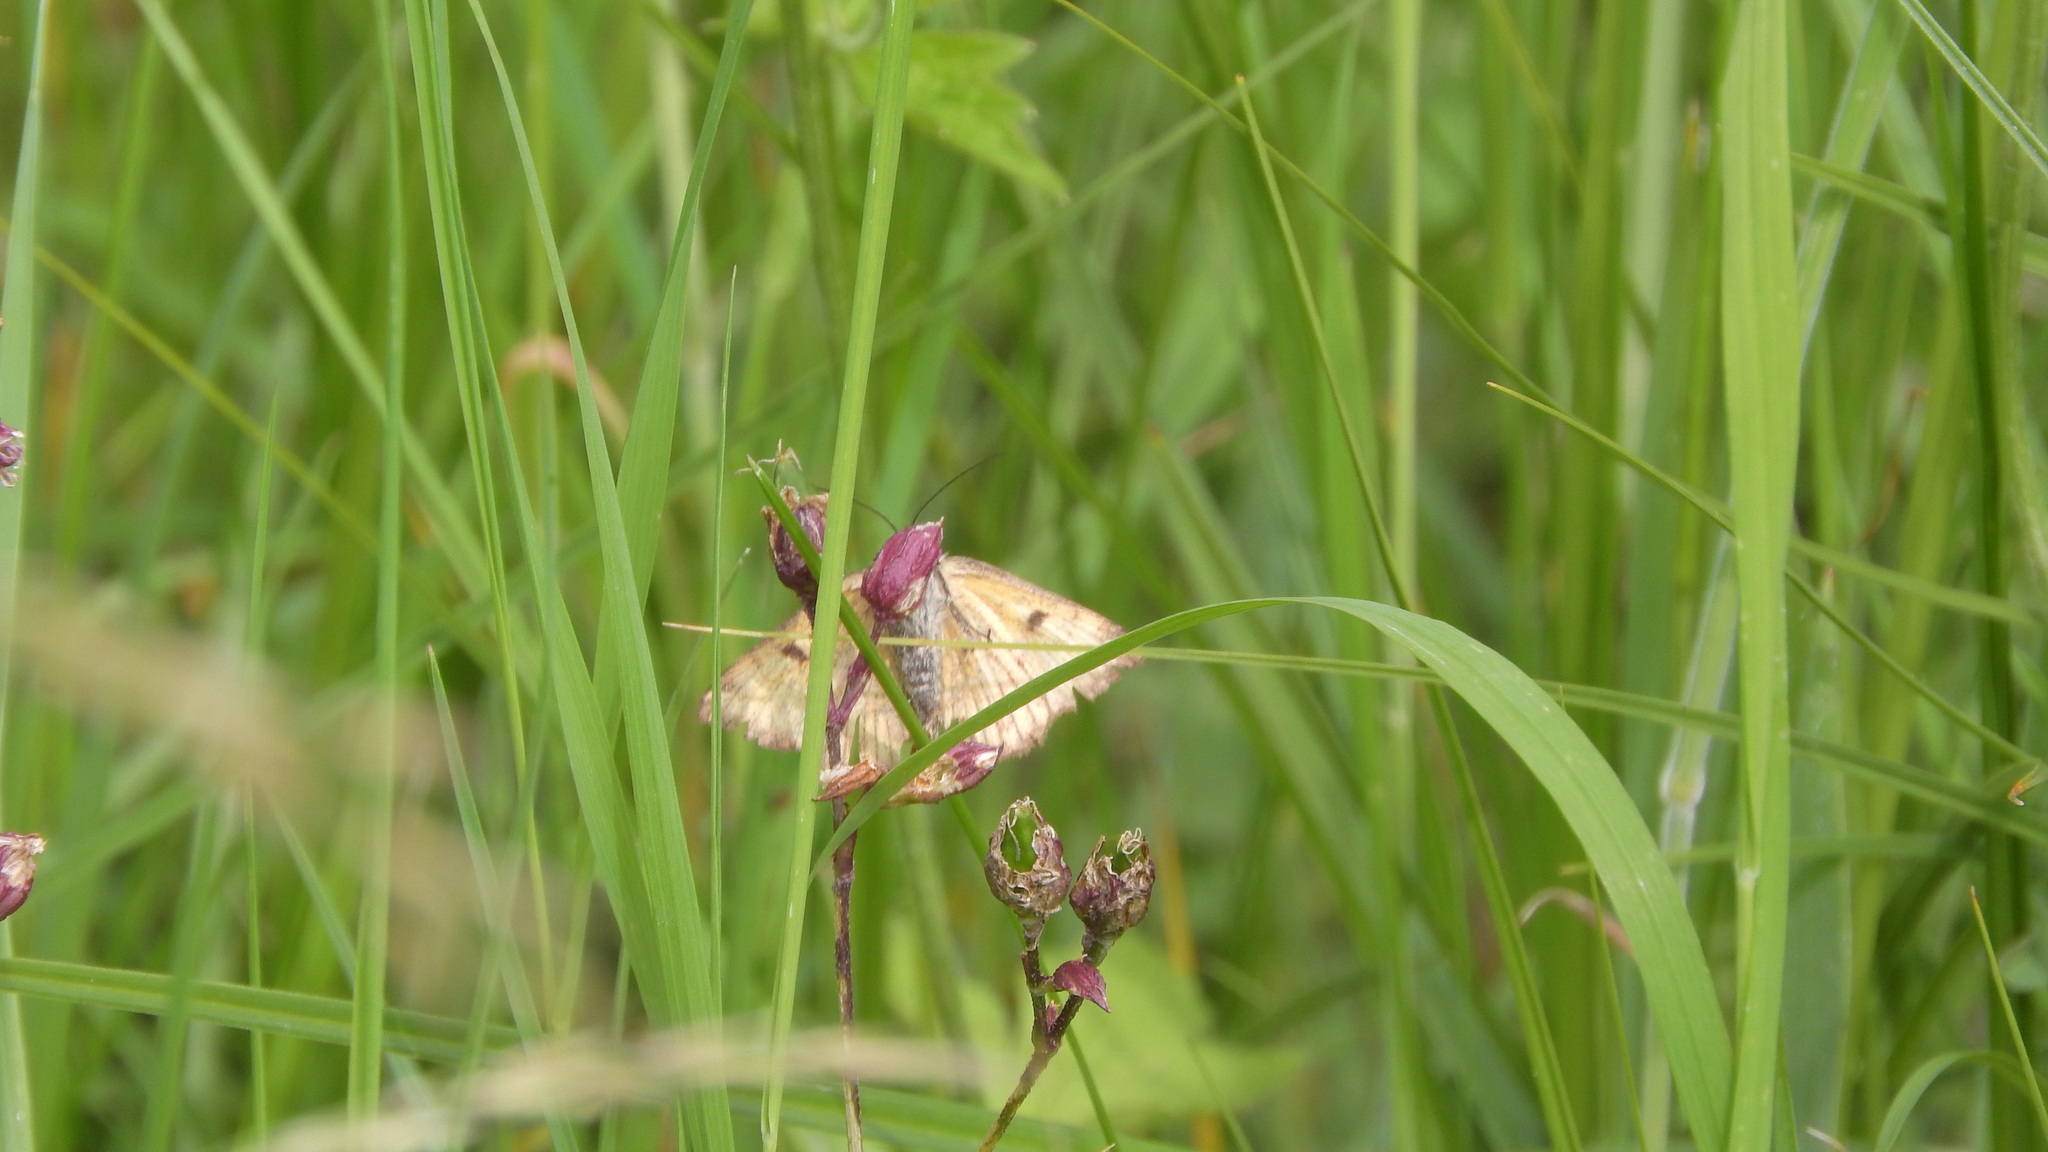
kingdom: Animalia
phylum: Arthropoda
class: Insecta
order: Lepidoptera
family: Erebidae
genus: Euclidia
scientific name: Euclidia glyphica
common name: Burnet companion
